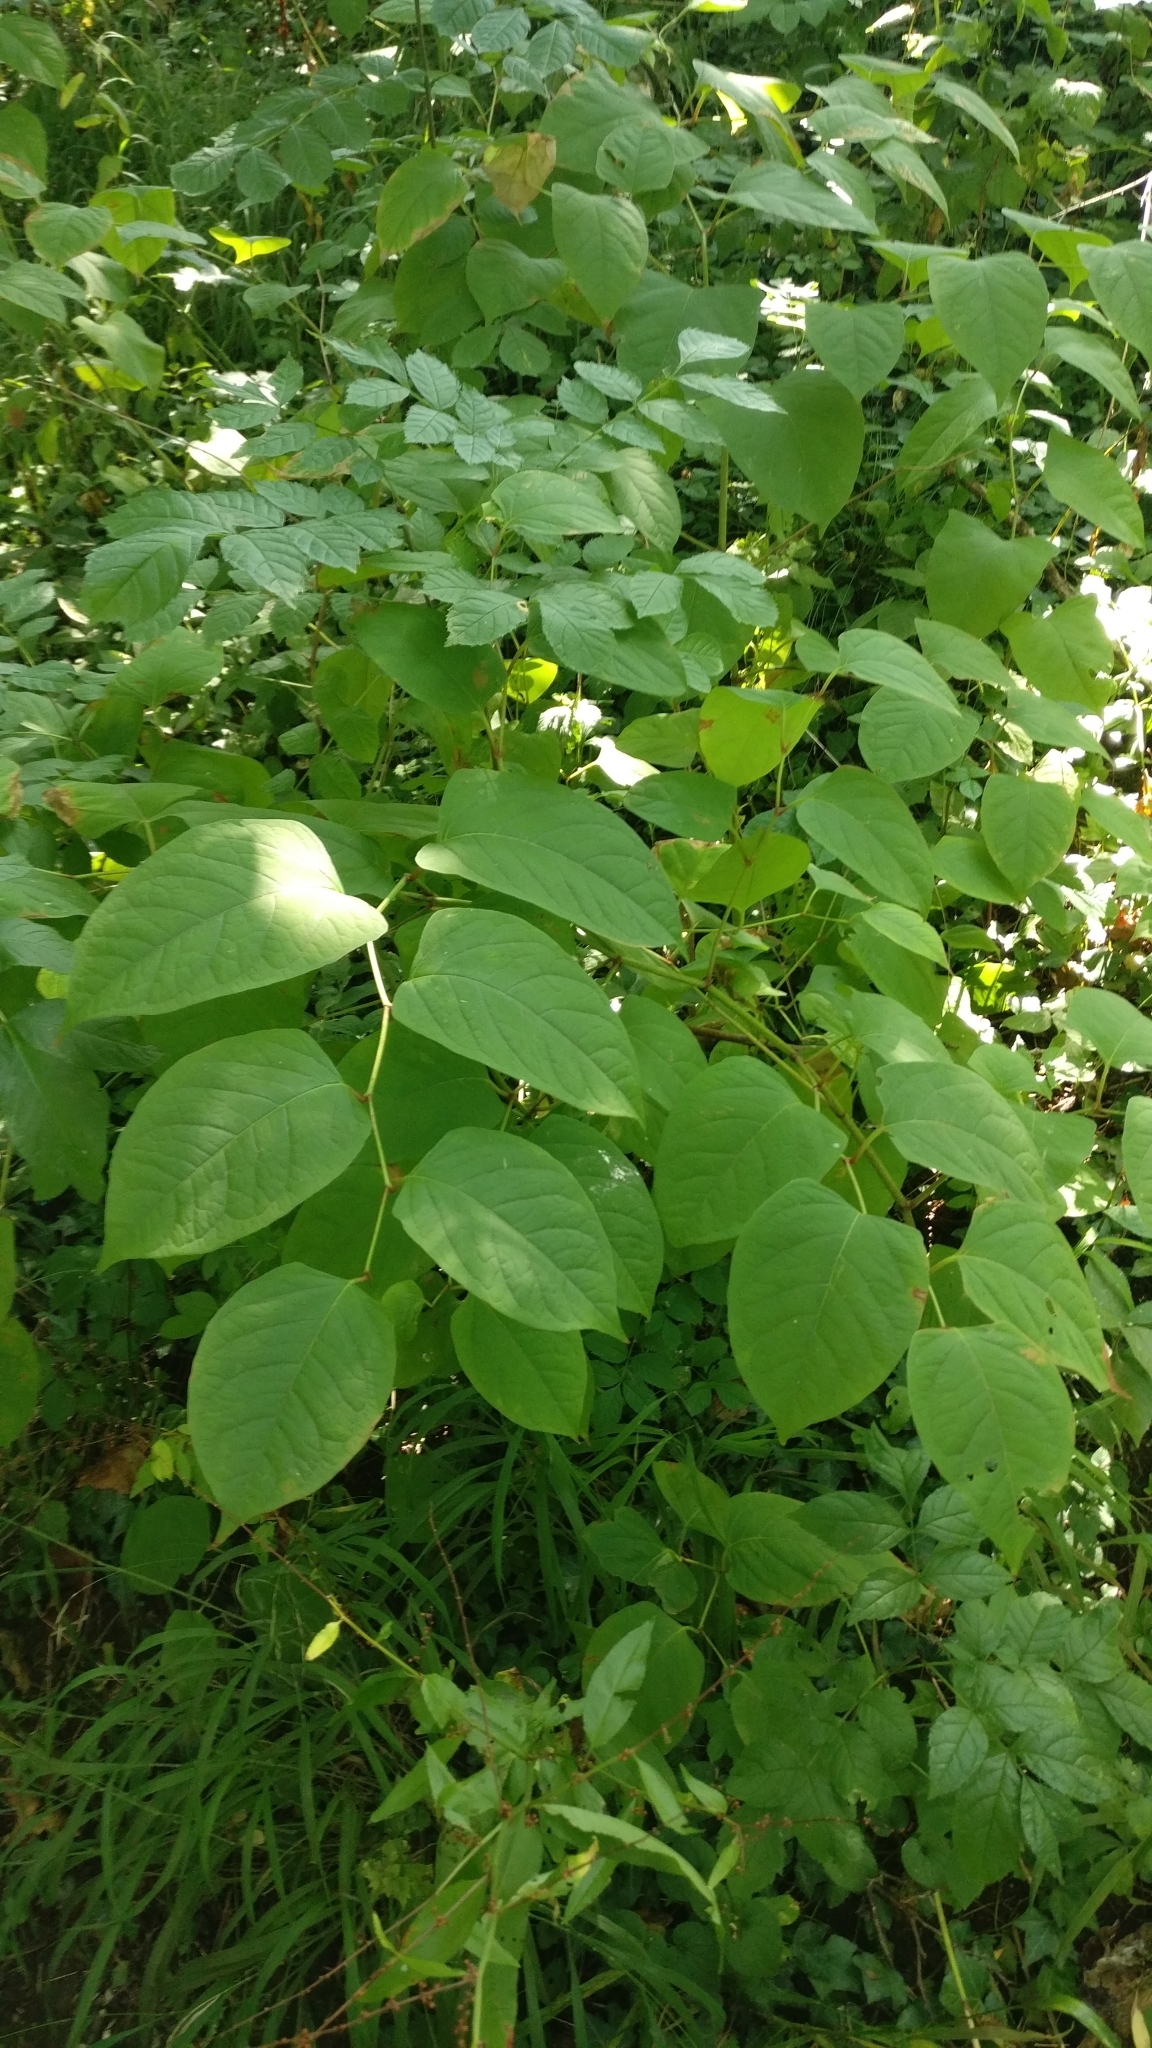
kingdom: Plantae
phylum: Tracheophyta
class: Magnoliopsida
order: Caryophyllales
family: Polygonaceae
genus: Reynoutria
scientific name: Reynoutria japonica
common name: Japanese knotweed
